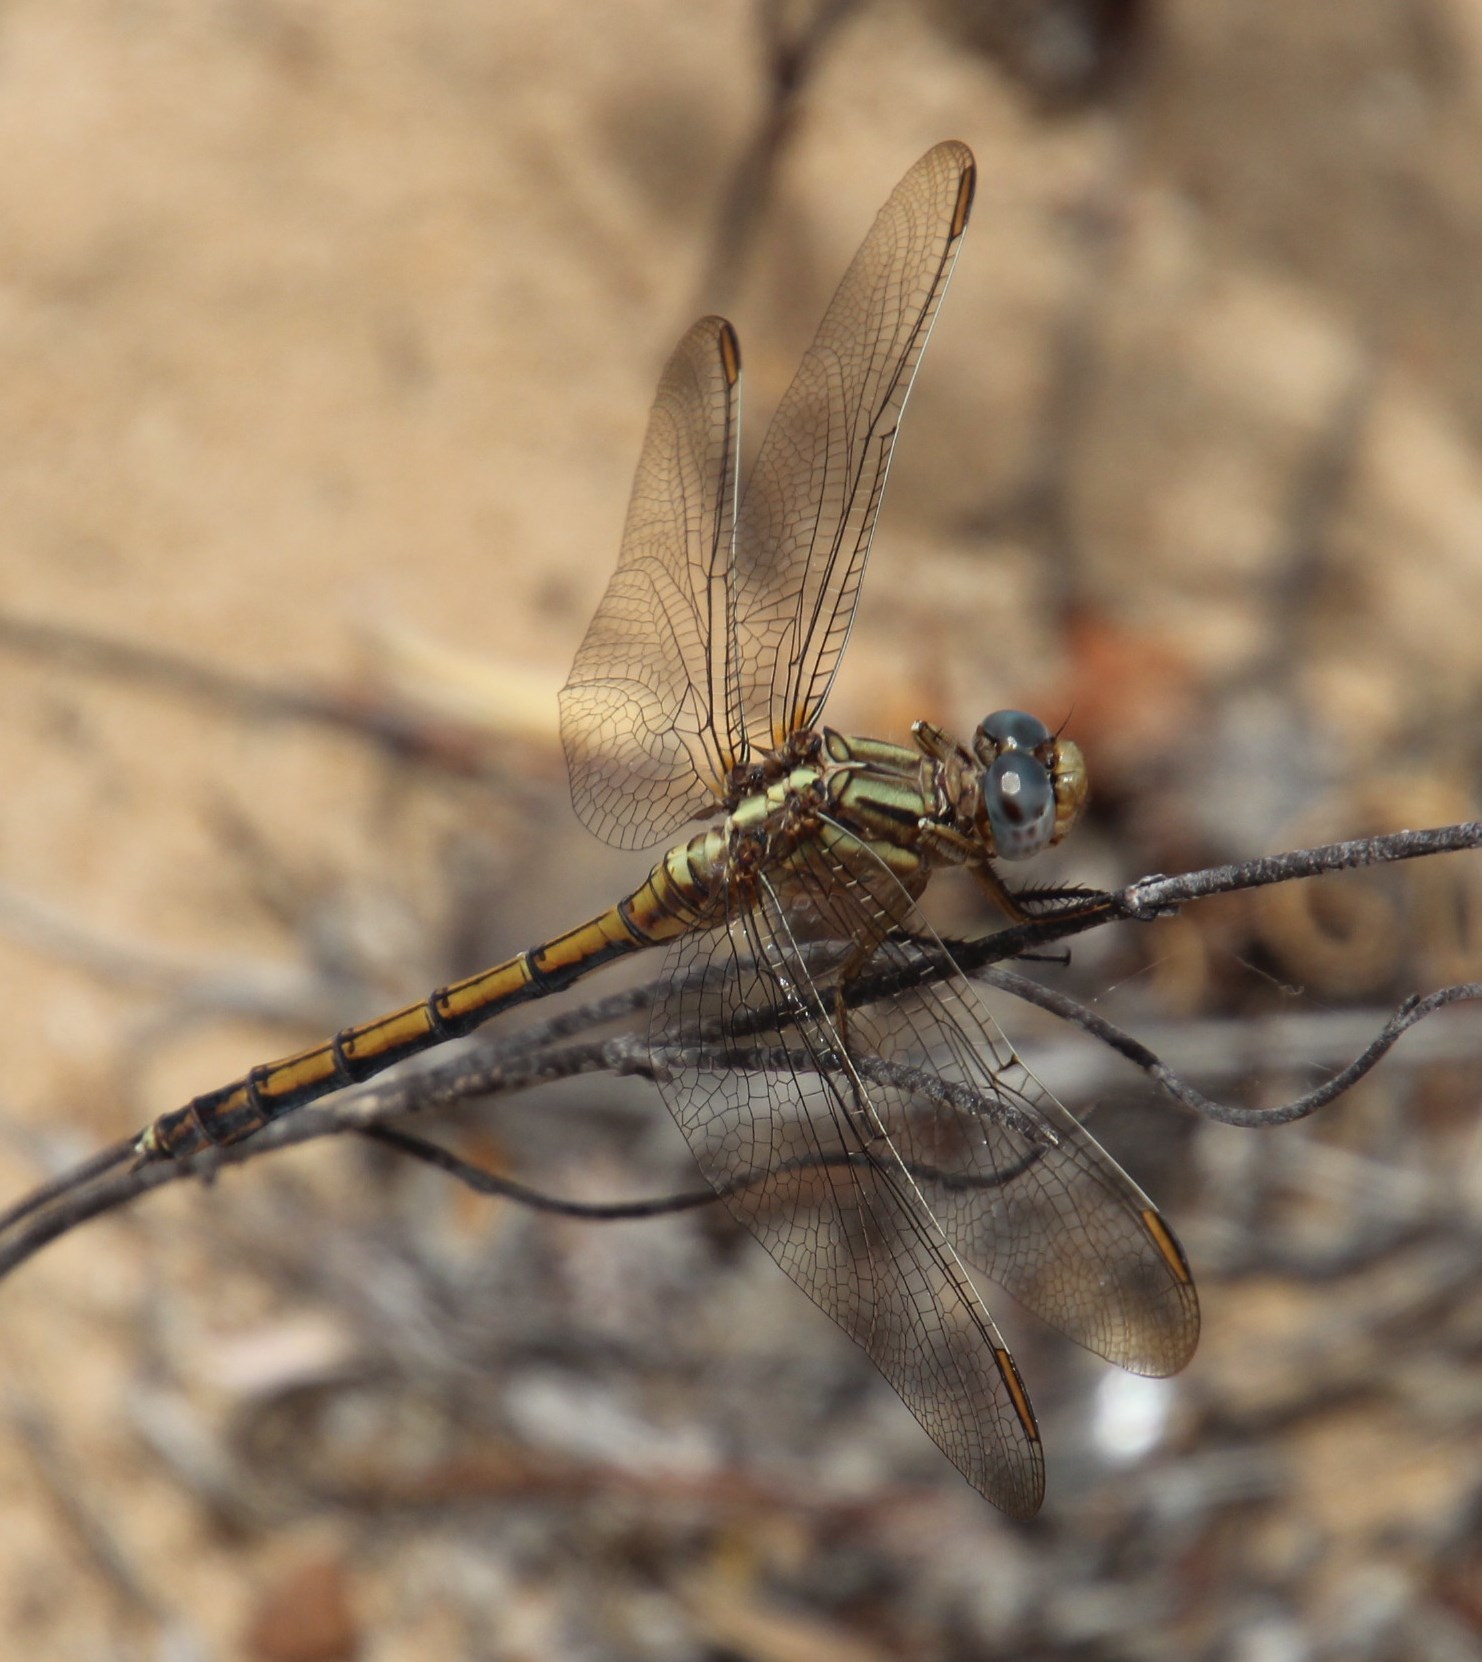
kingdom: Animalia
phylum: Arthropoda
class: Insecta
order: Odonata
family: Libellulidae
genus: Orthetrum
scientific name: Orthetrum machadoi
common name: Highland skimmer
